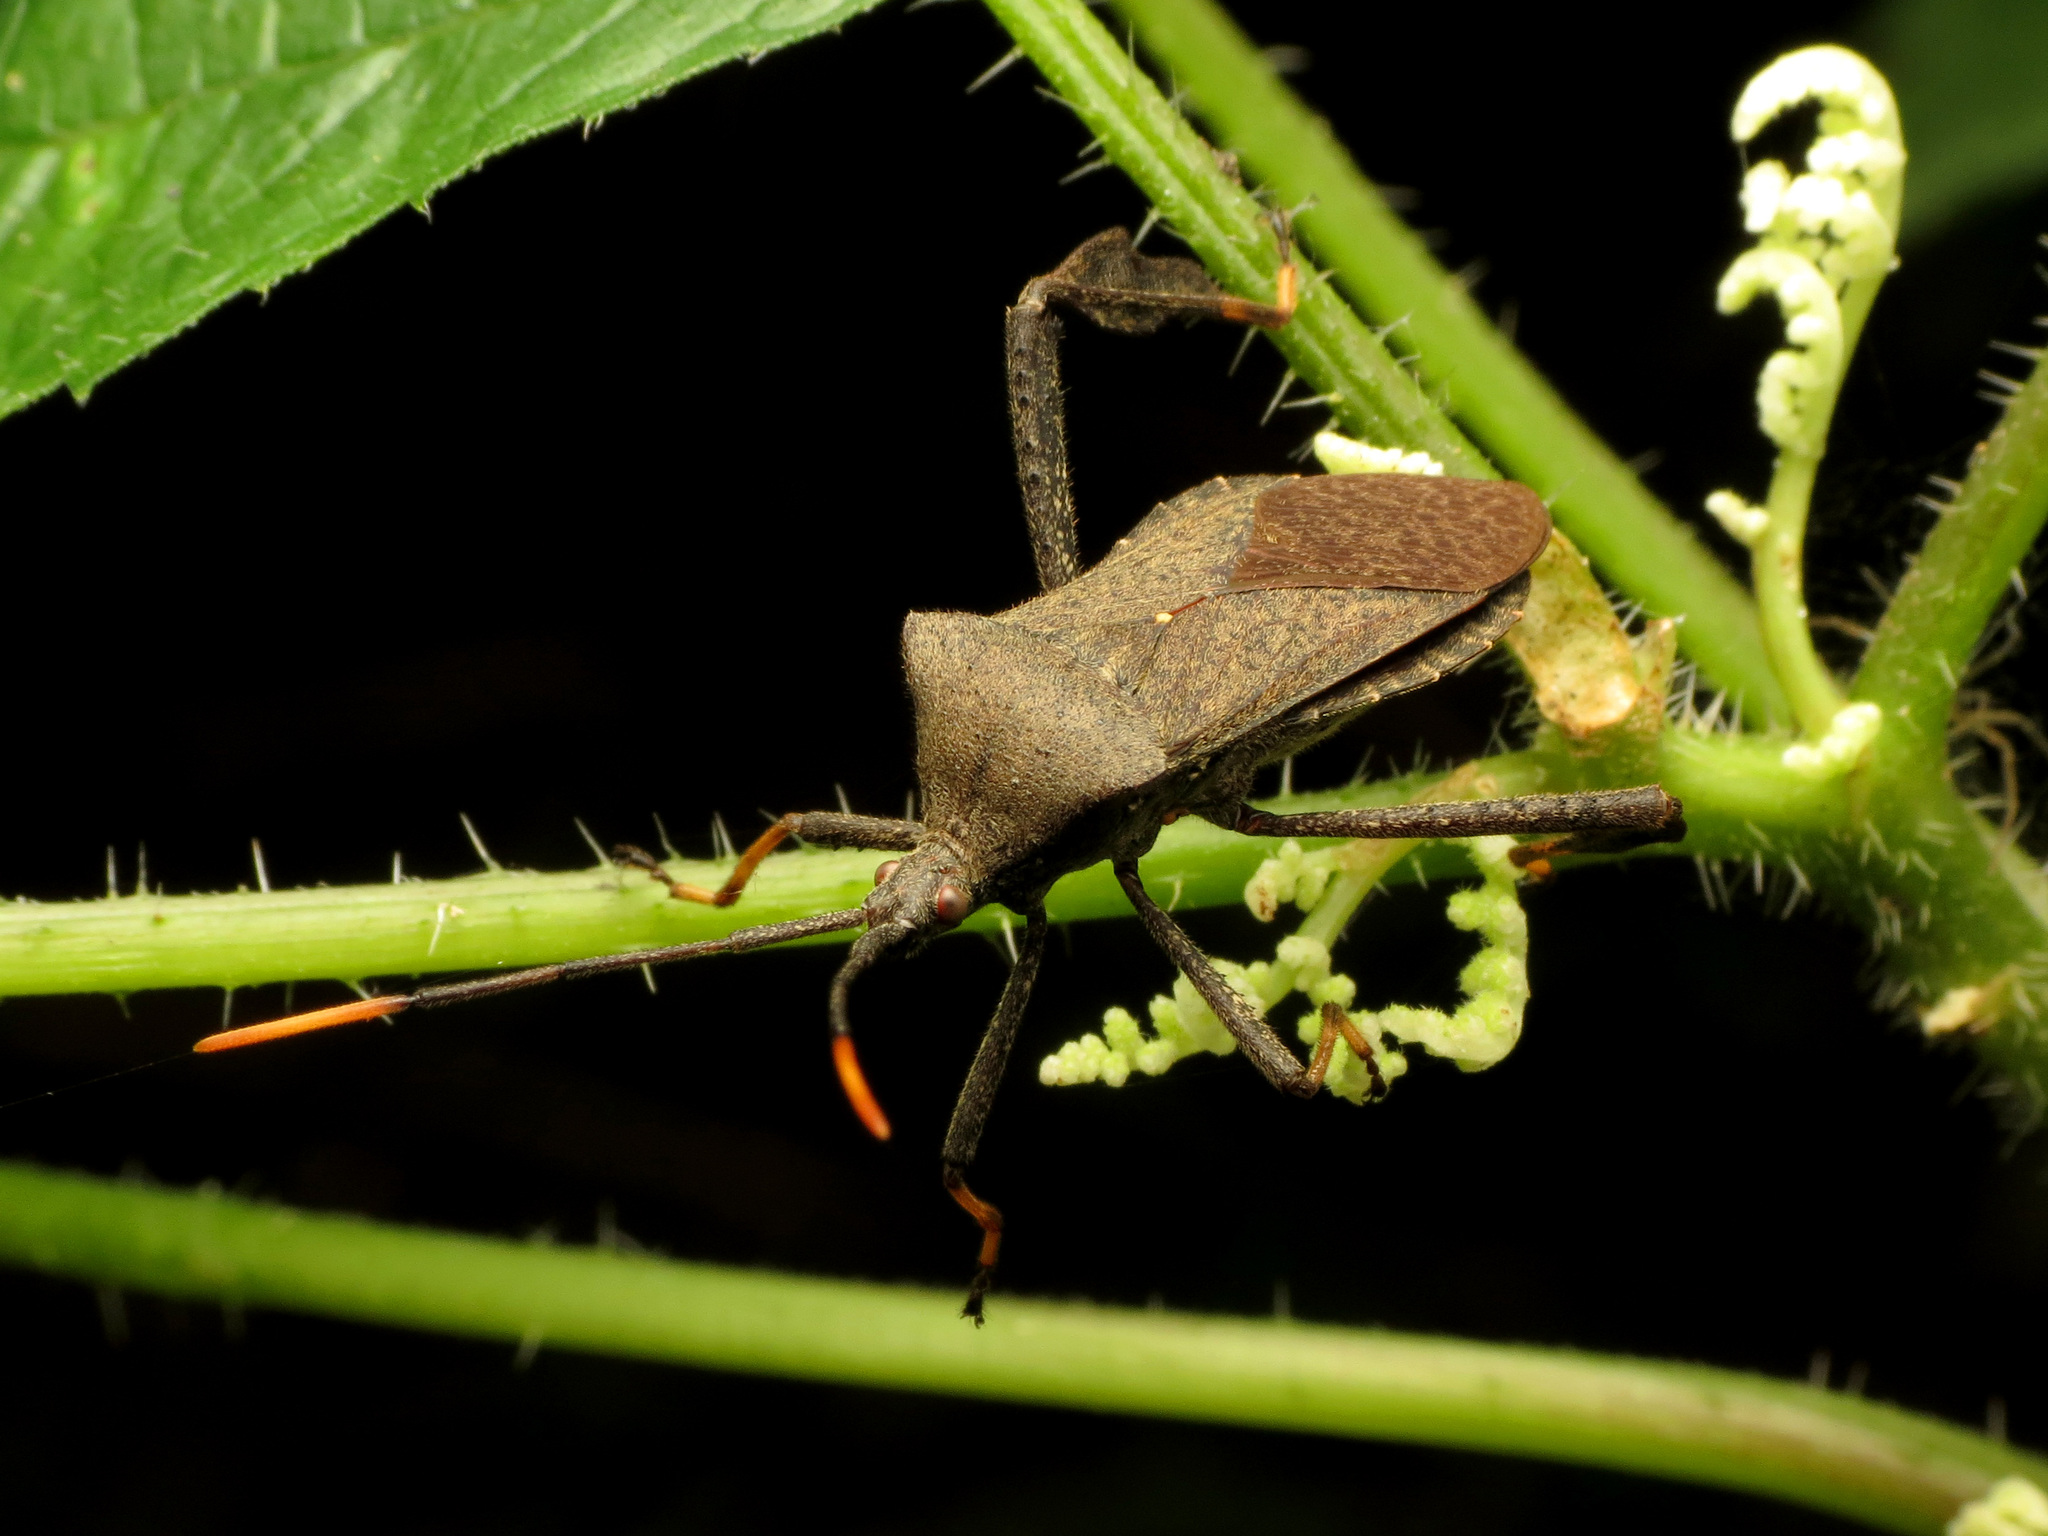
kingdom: Animalia
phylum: Arthropoda
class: Insecta
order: Hemiptera
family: Coreidae
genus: Acanthocephala
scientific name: Acanthocephala terminalis
